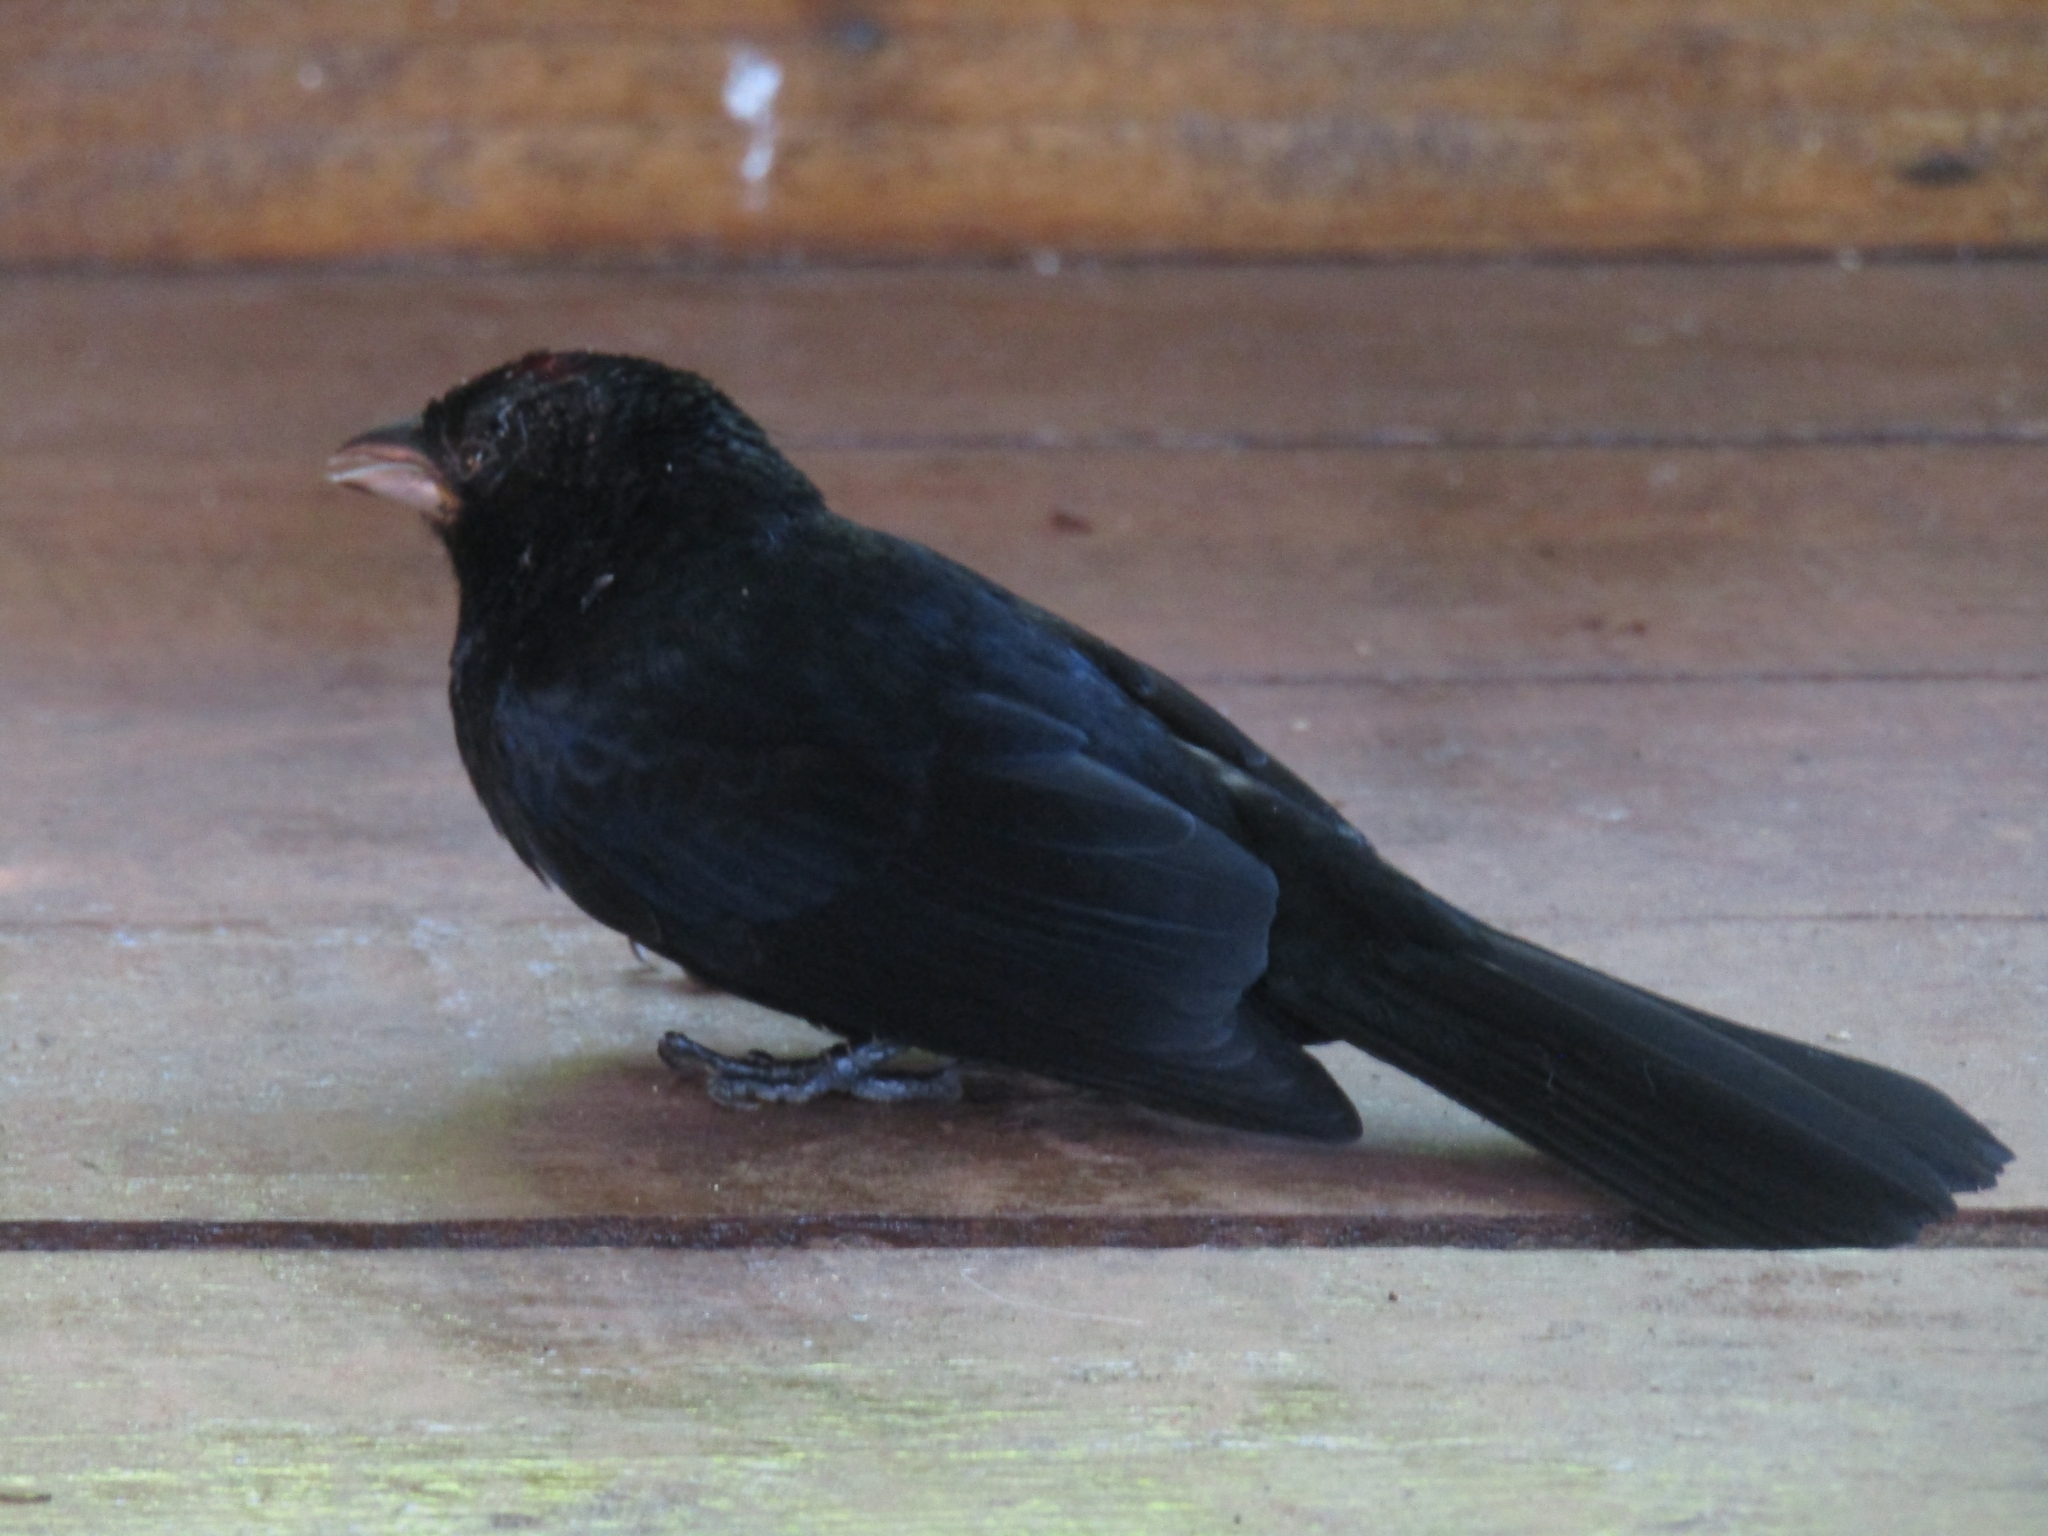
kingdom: Animalia
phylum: Chordata
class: Aves
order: Passeriformes
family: Thraupidae
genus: Tachyphonus
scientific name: Tachyphonus coronatus
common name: Ruby-crowned tanager
